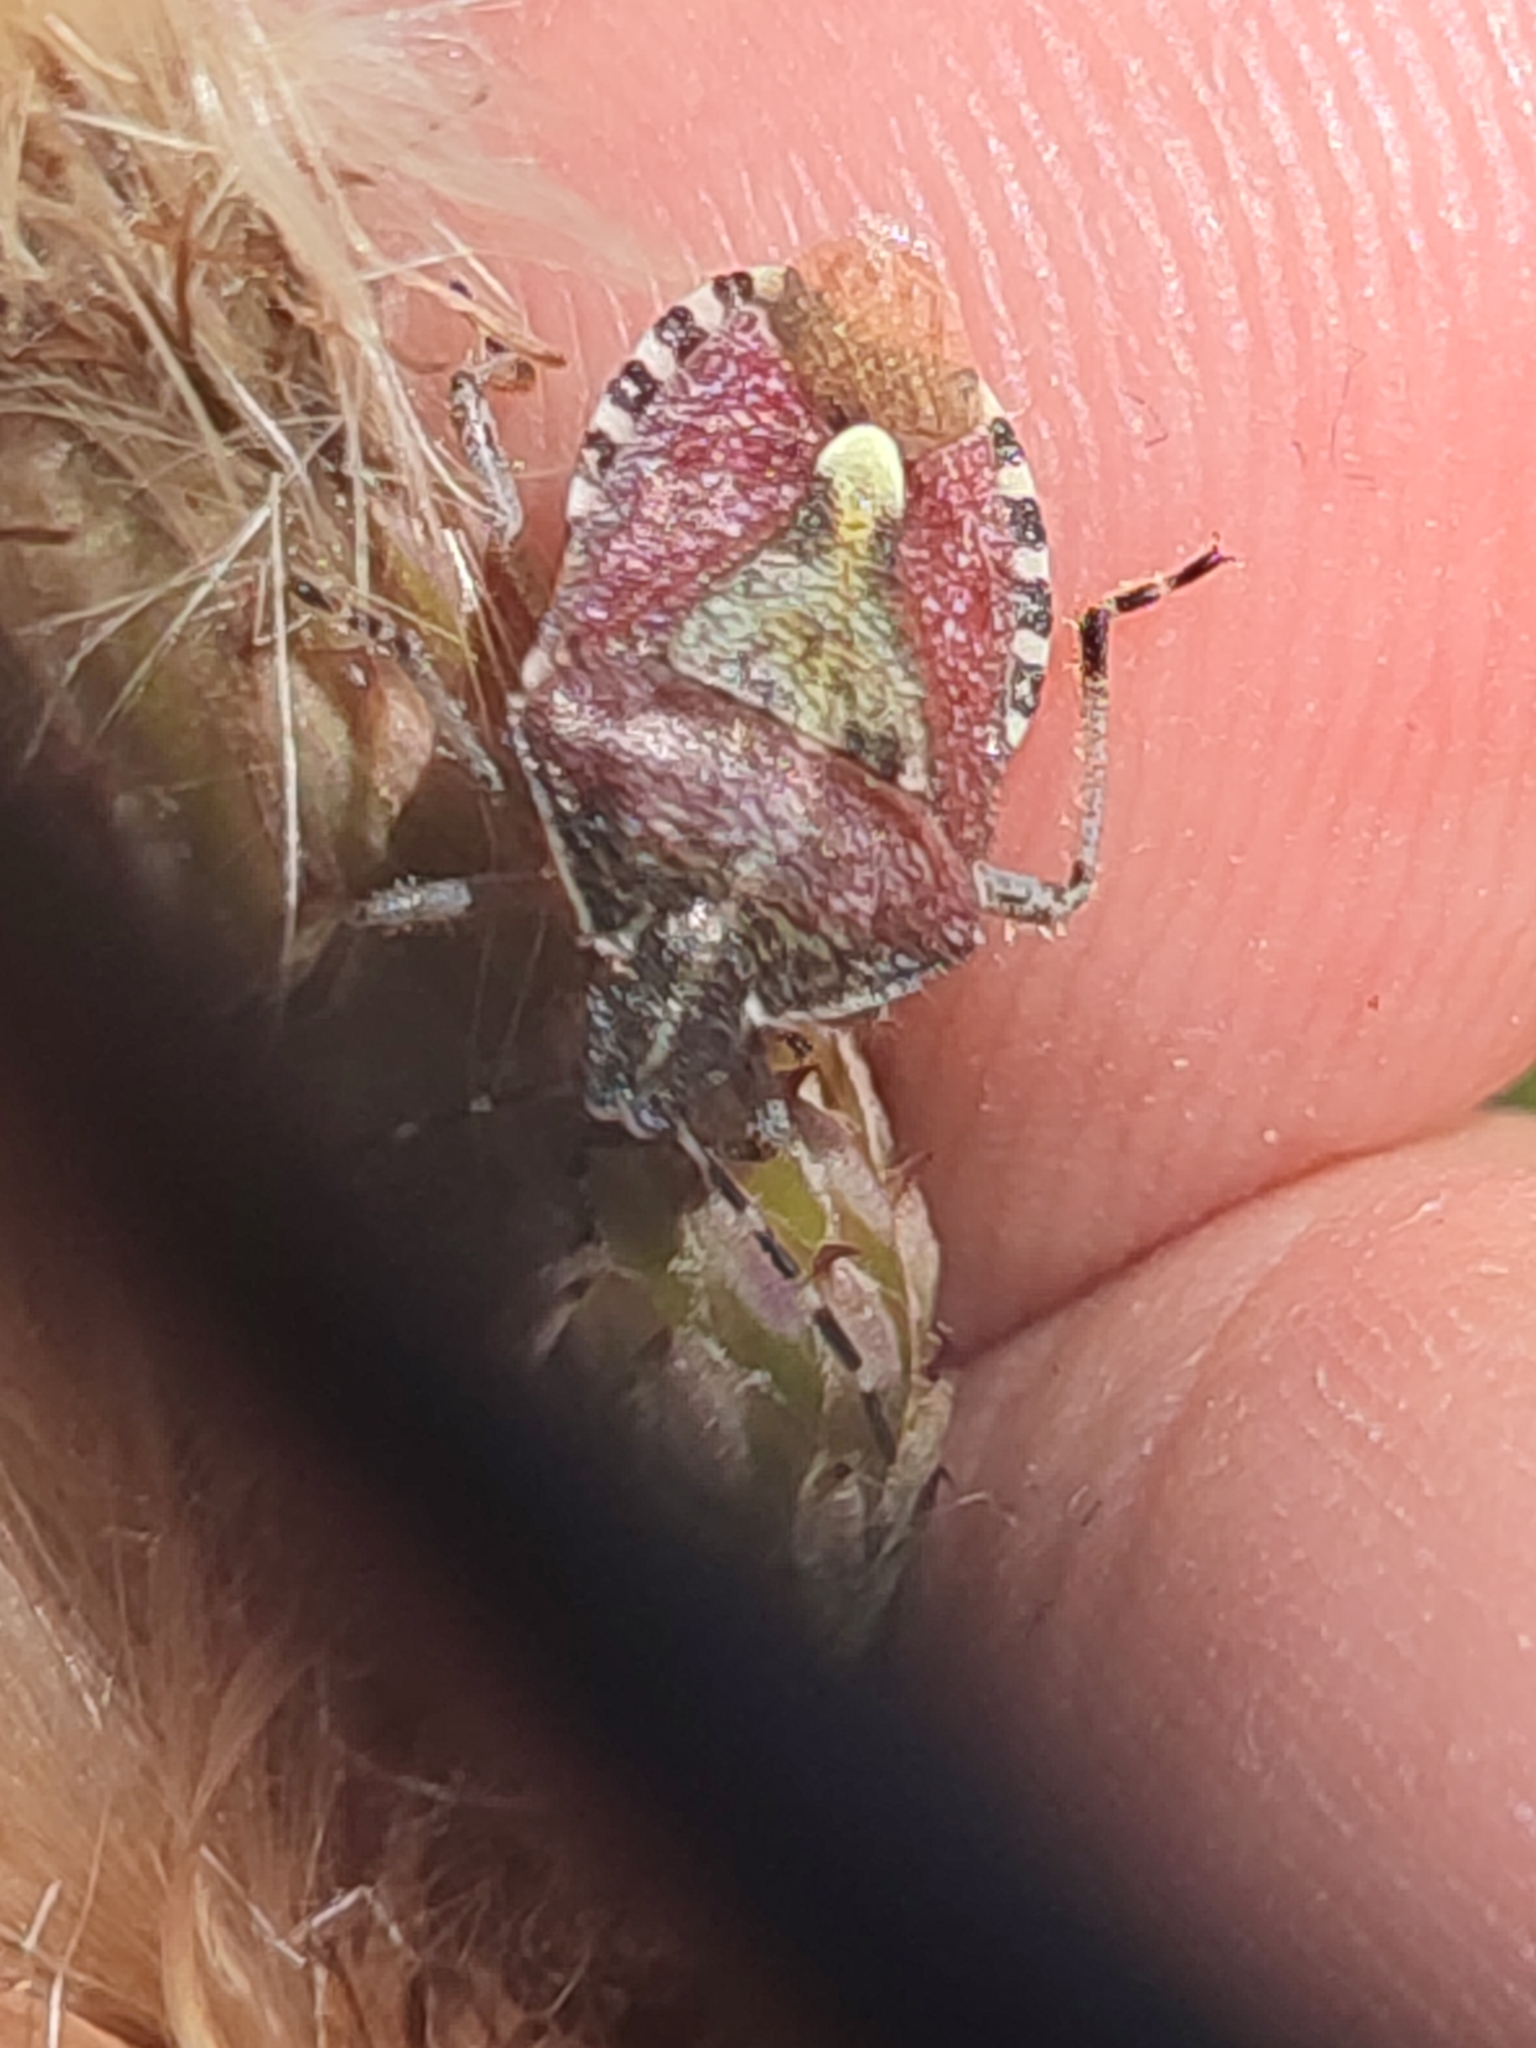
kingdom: Animalia
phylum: Arthropoda
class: Insecta
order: Hemiptera
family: Pentatomidae
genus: Dolycoris
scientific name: Dolycoris baccarum
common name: Sloe bug
